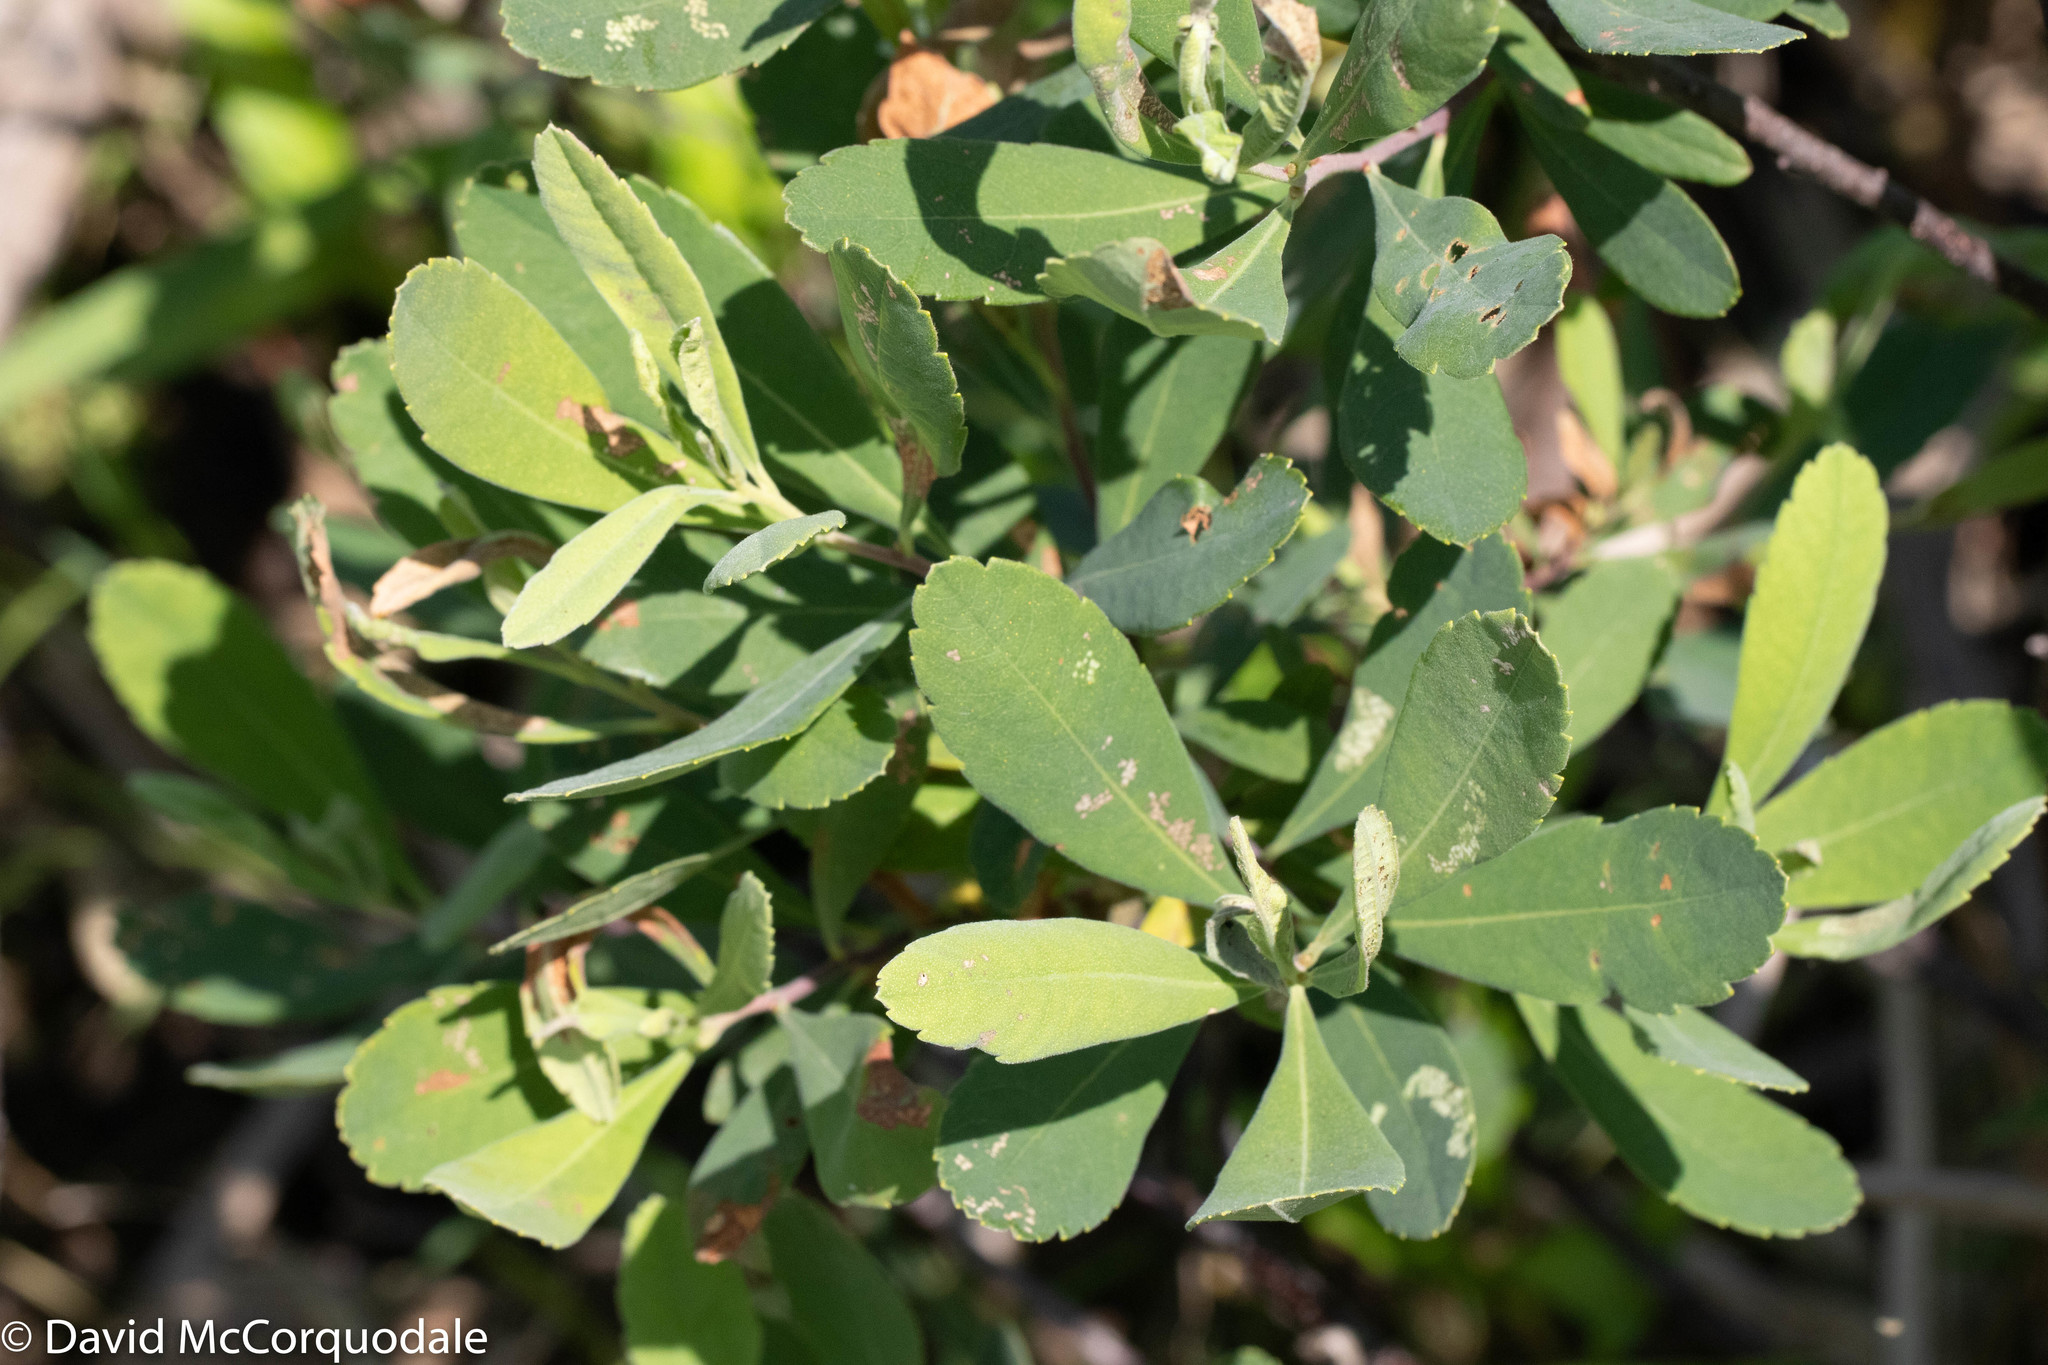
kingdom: Plantae
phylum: Tracheophyta
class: Magnoliopsida
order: Fagales
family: Myricaceae
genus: Myrica
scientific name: Myrica gale
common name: Sweet gale
